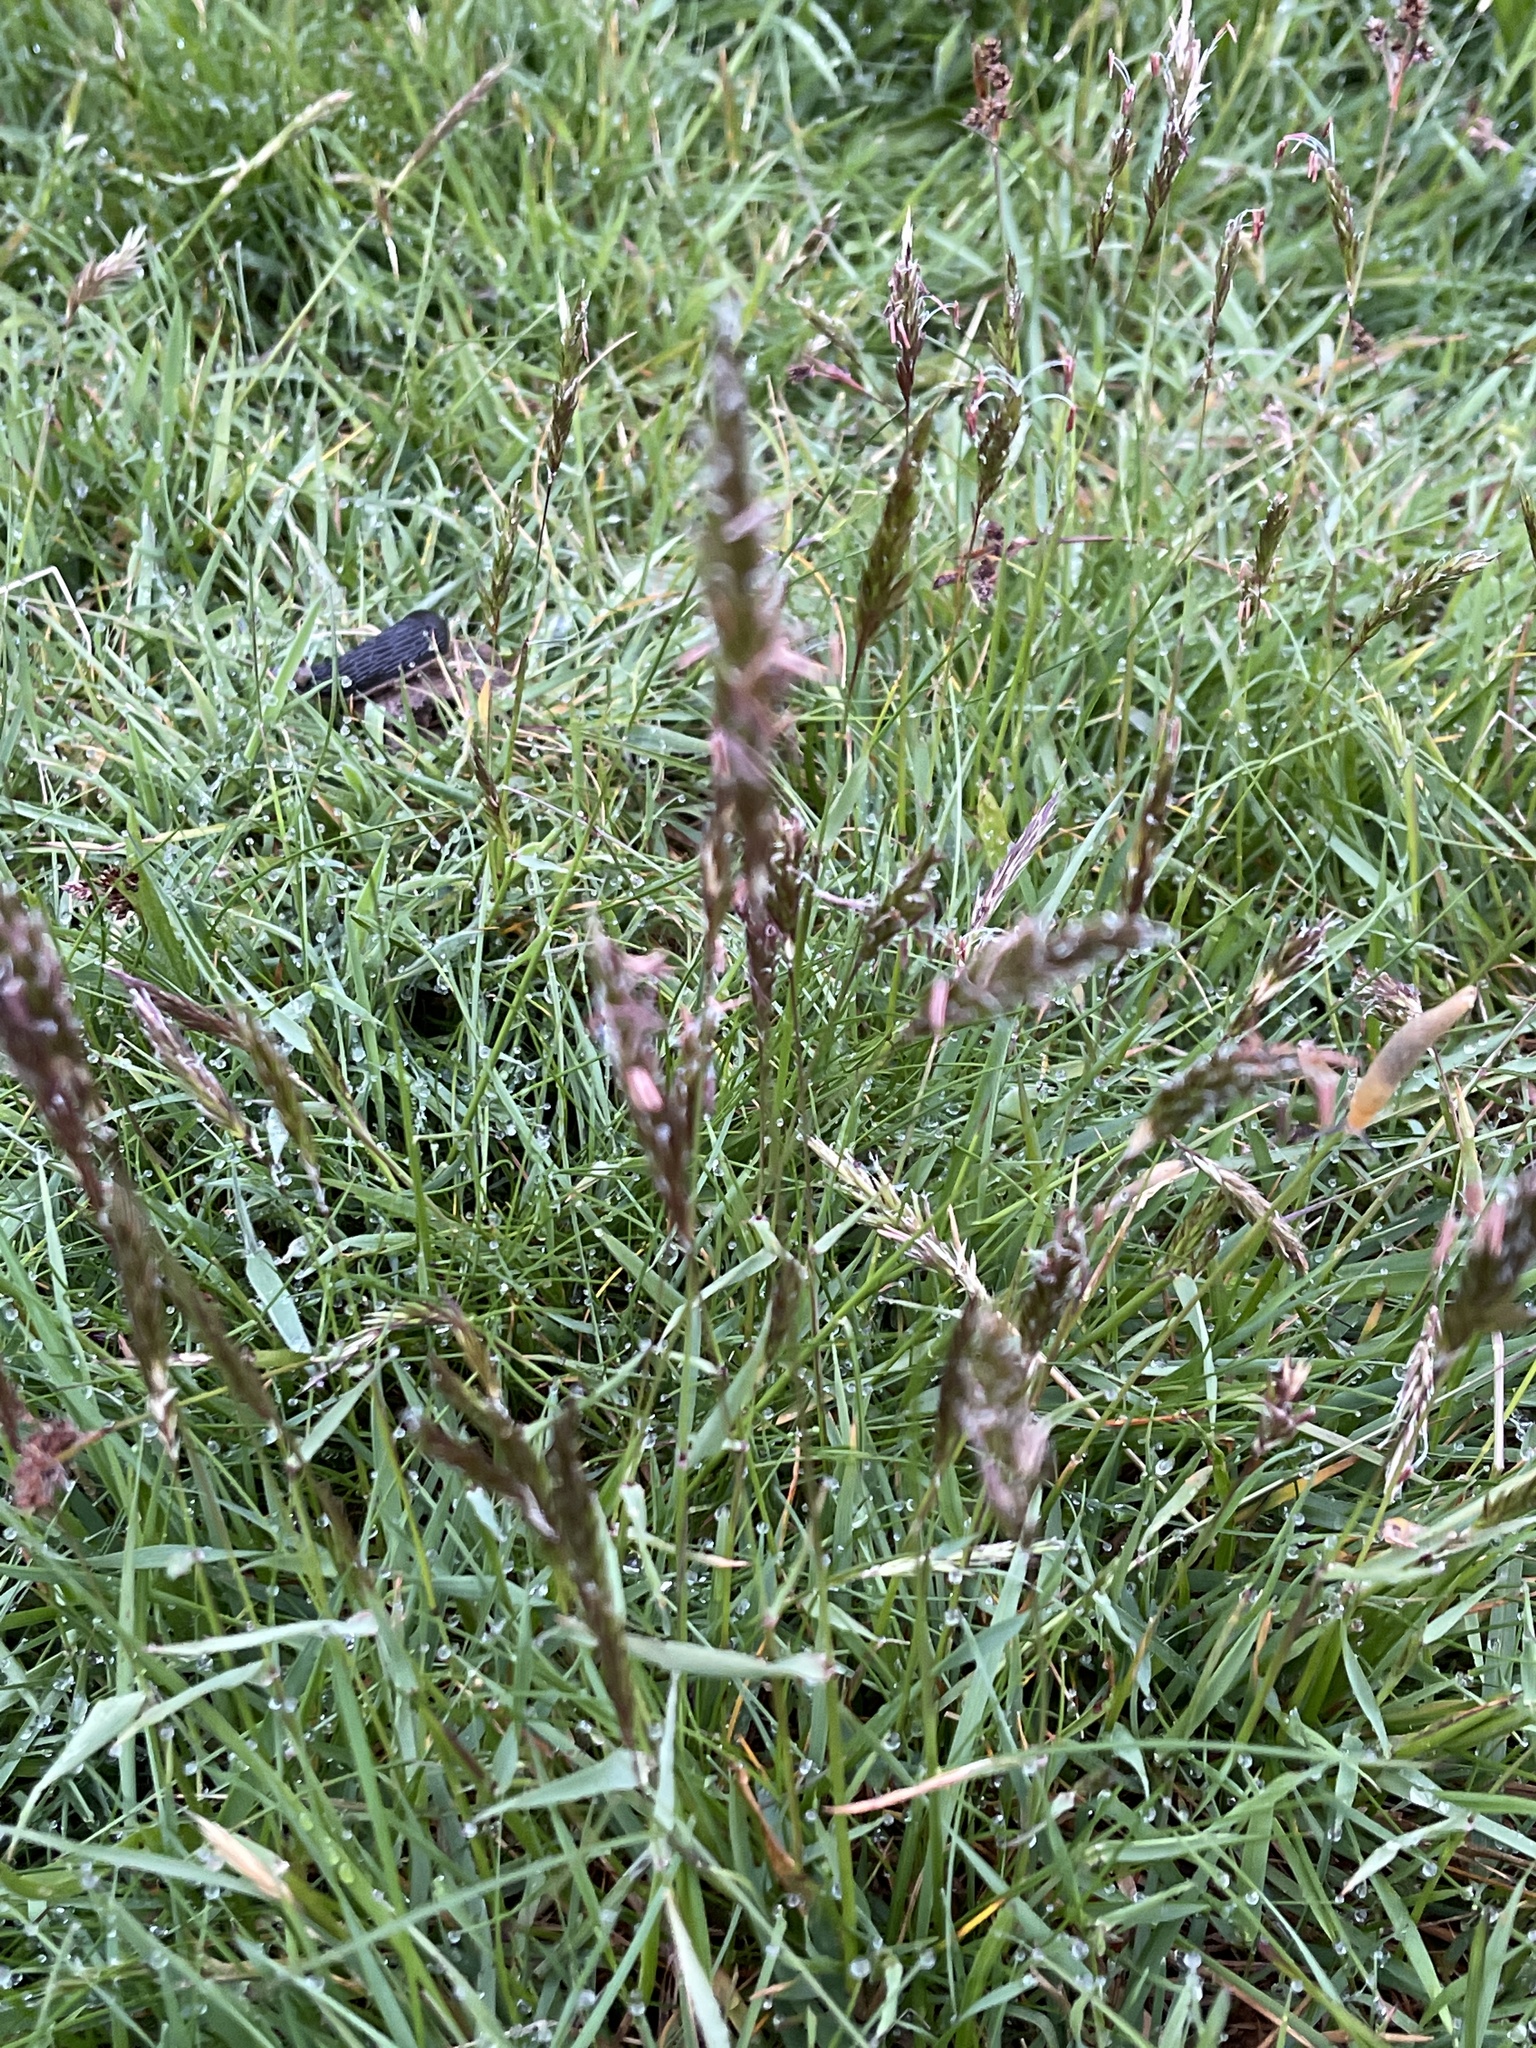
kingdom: Plantae
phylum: Tracheophyta
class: Liliopsida
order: Poales
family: Poaceae
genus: Anthoxanthum
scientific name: Anthoxanthum odoratum
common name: Sweet vernalgrass
